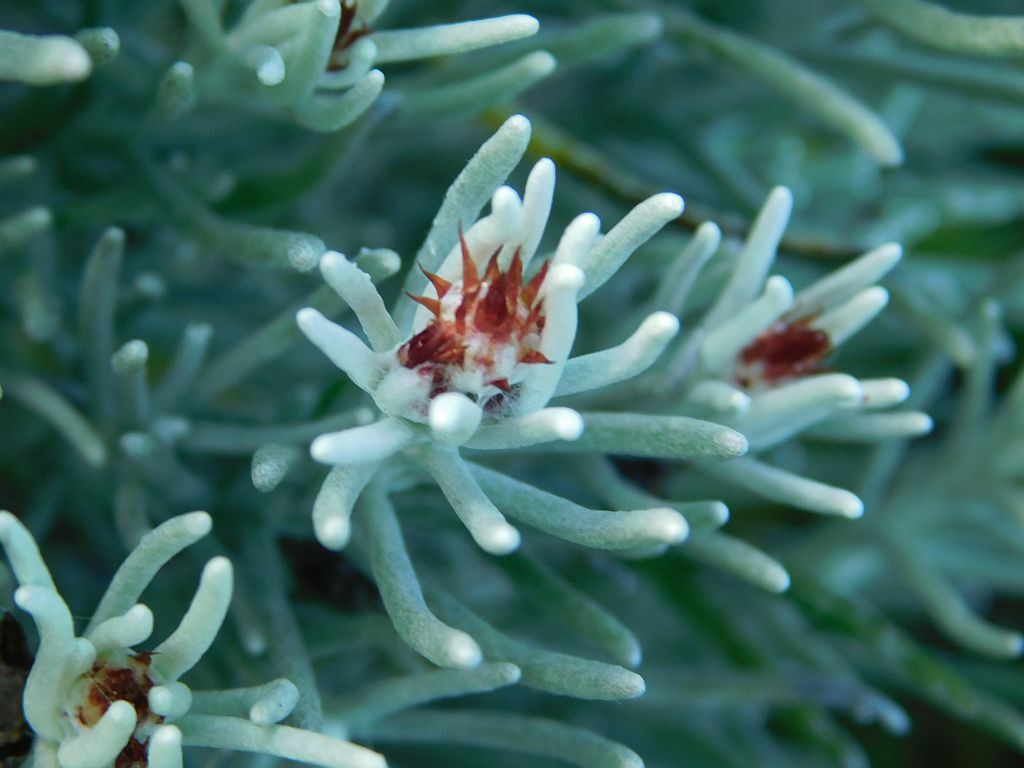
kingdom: Plantae
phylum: Tracheophyta
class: Magnoliopsida
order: Asterales
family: Asteraceae
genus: Syncarpha
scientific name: Syncarpha gnaphaloides
